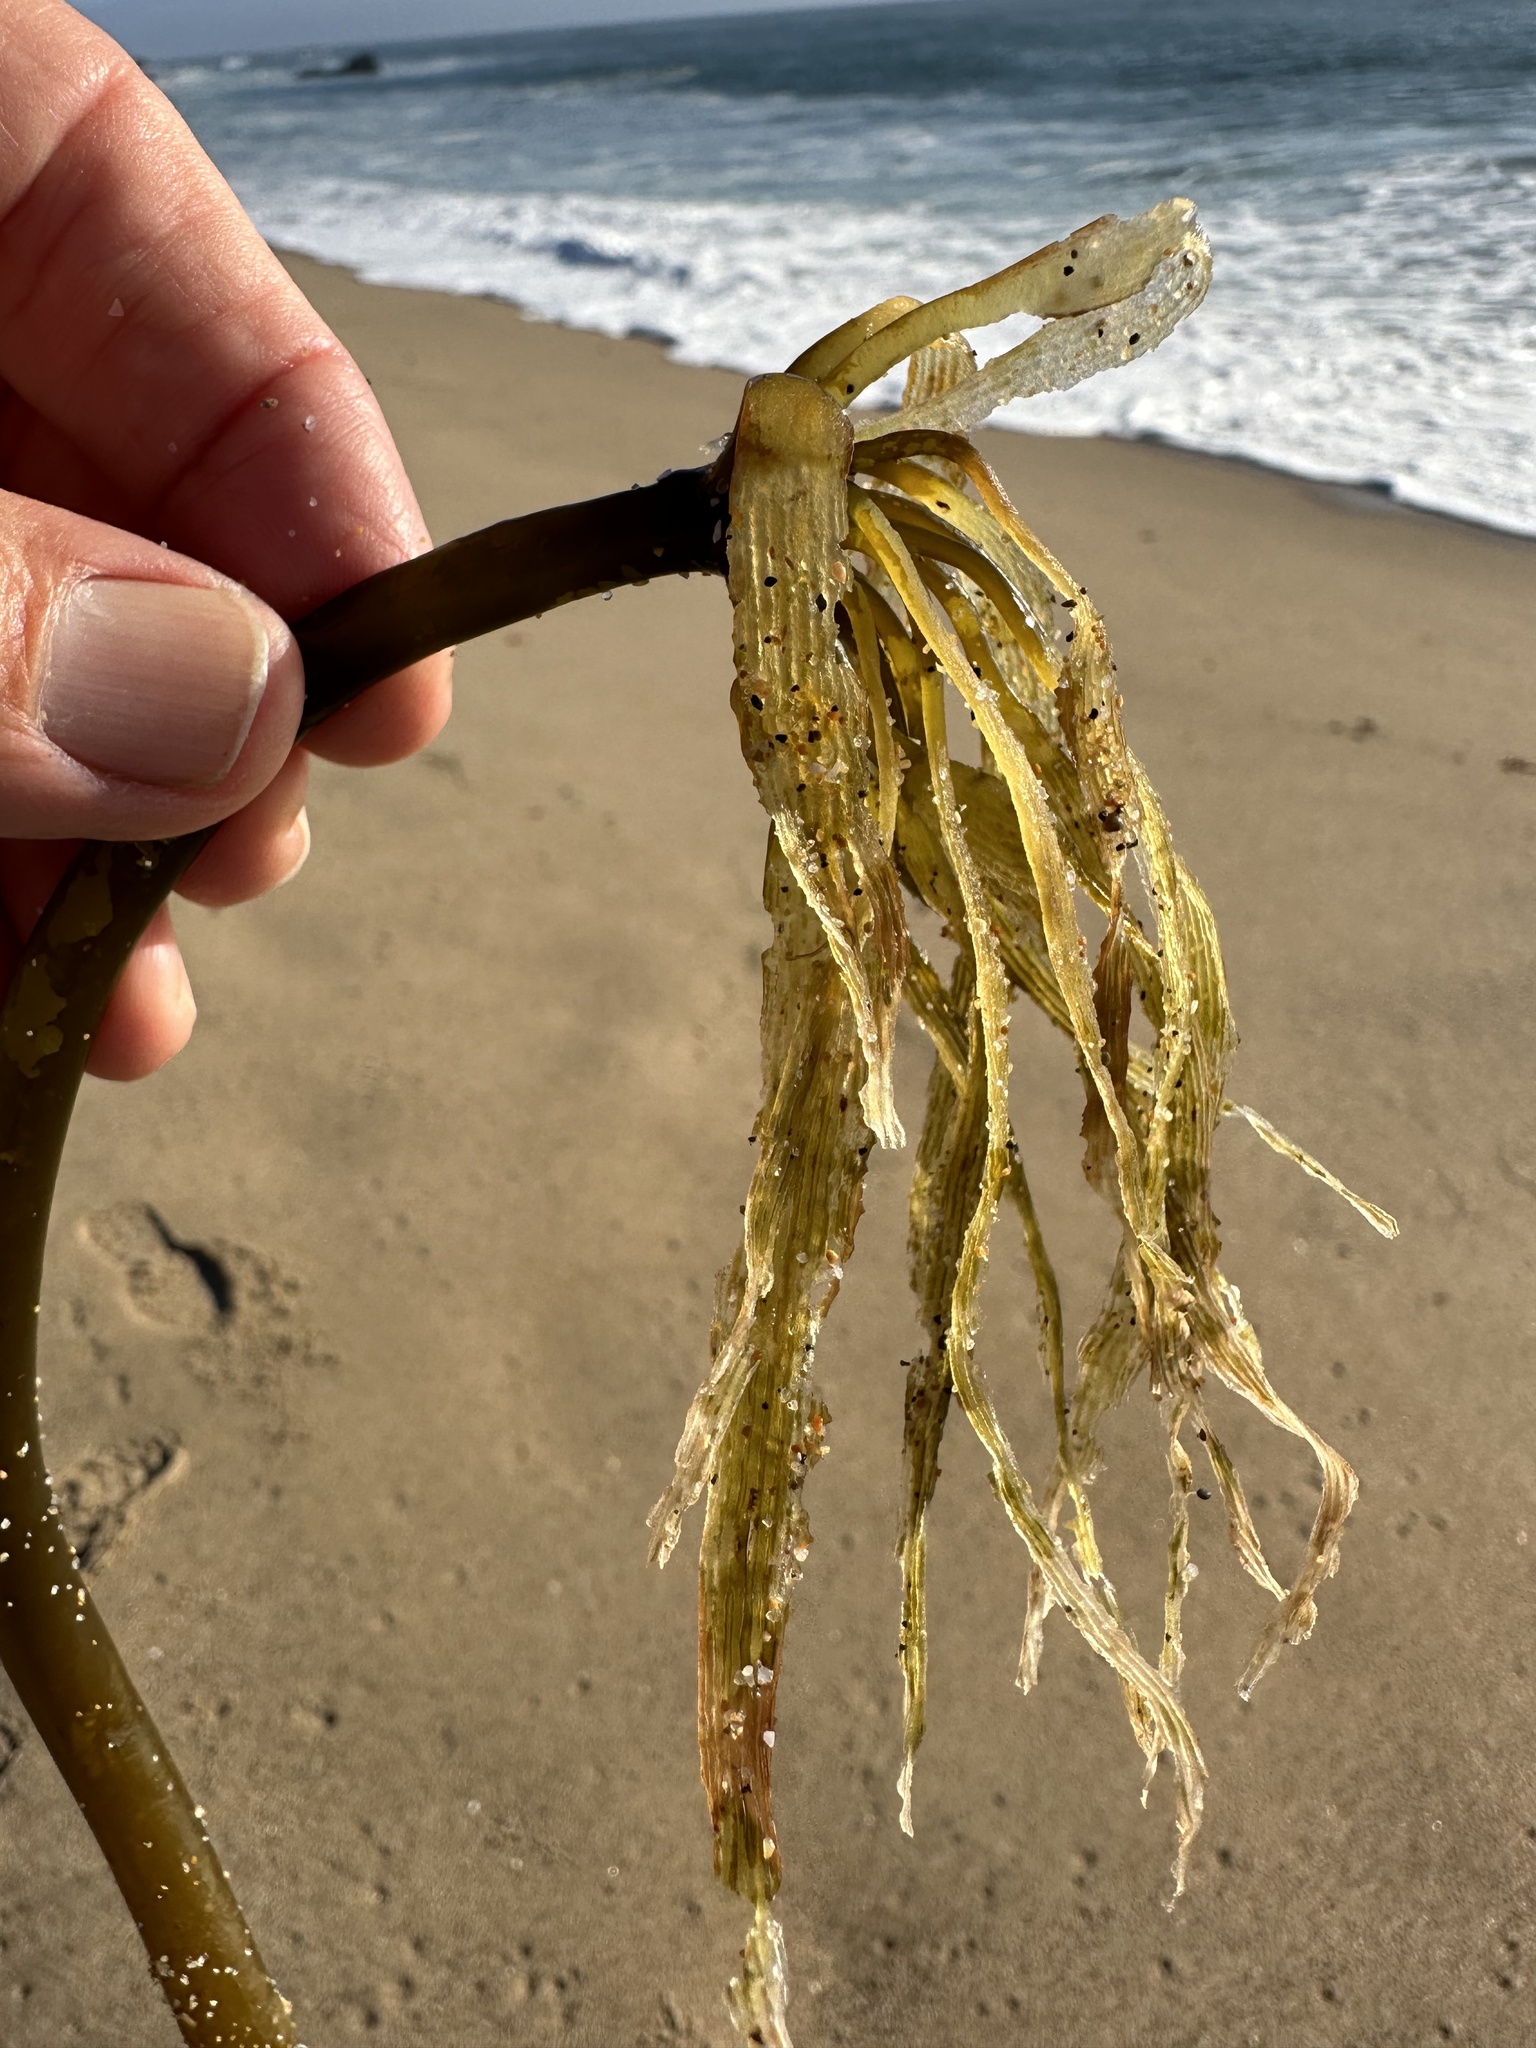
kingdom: Chromista
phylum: Ochrophyta
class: Phaeophyceae
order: Laminariales
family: Laminariaceae
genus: Postelsia
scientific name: Postelsia palmiformis
